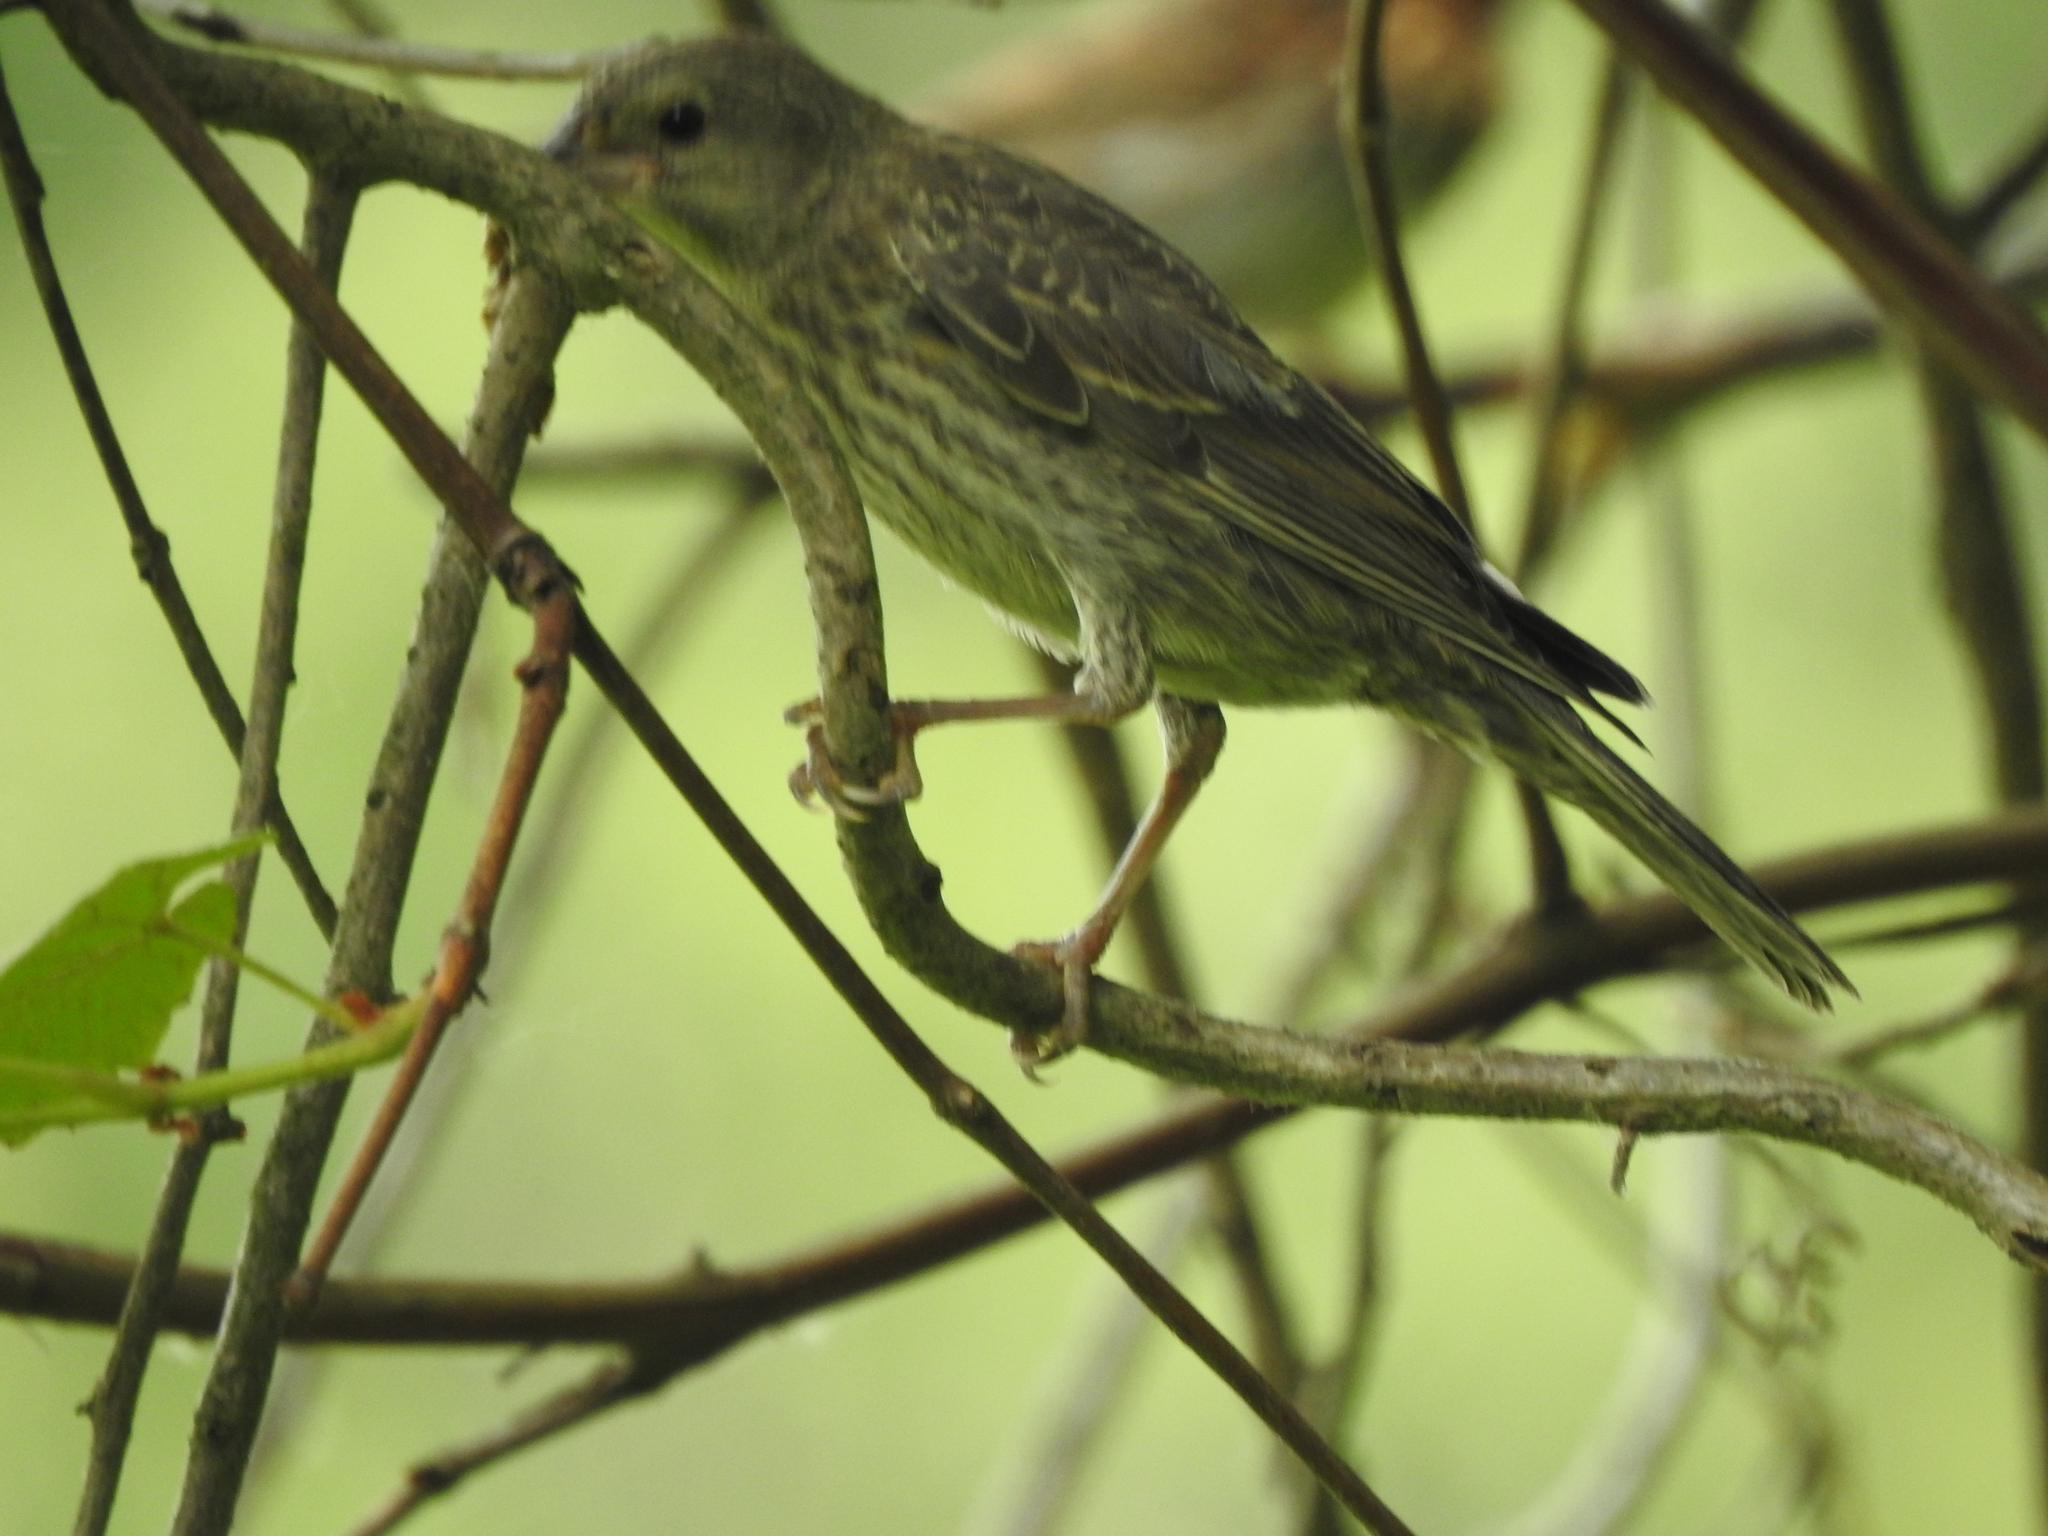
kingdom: Animalia
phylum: Chordata
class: Aves
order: Passeriformes
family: Fringillidae
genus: Haemorhous
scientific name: Haemorhous mexicanus
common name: House finch
